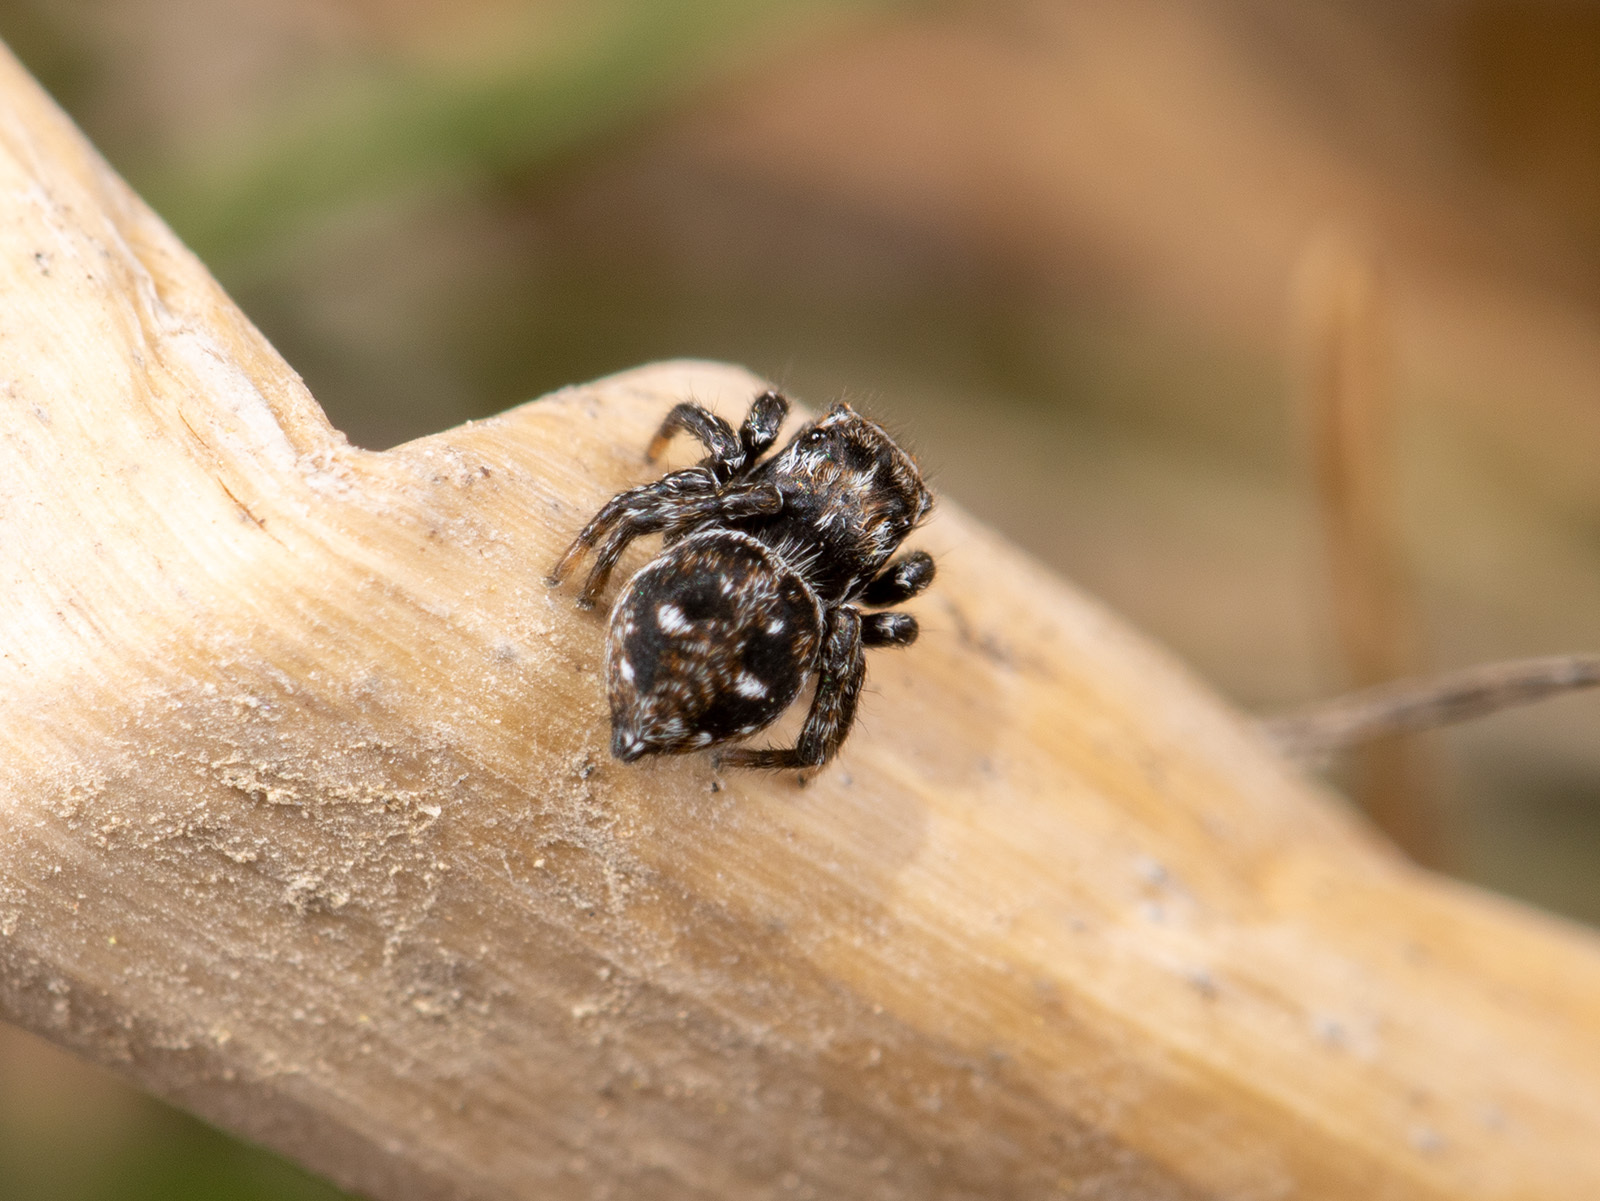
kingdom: Animalia
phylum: Arthropoda
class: Arachnida
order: Araneae
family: Salticidae
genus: Attulus
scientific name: Attulus inexpectus
